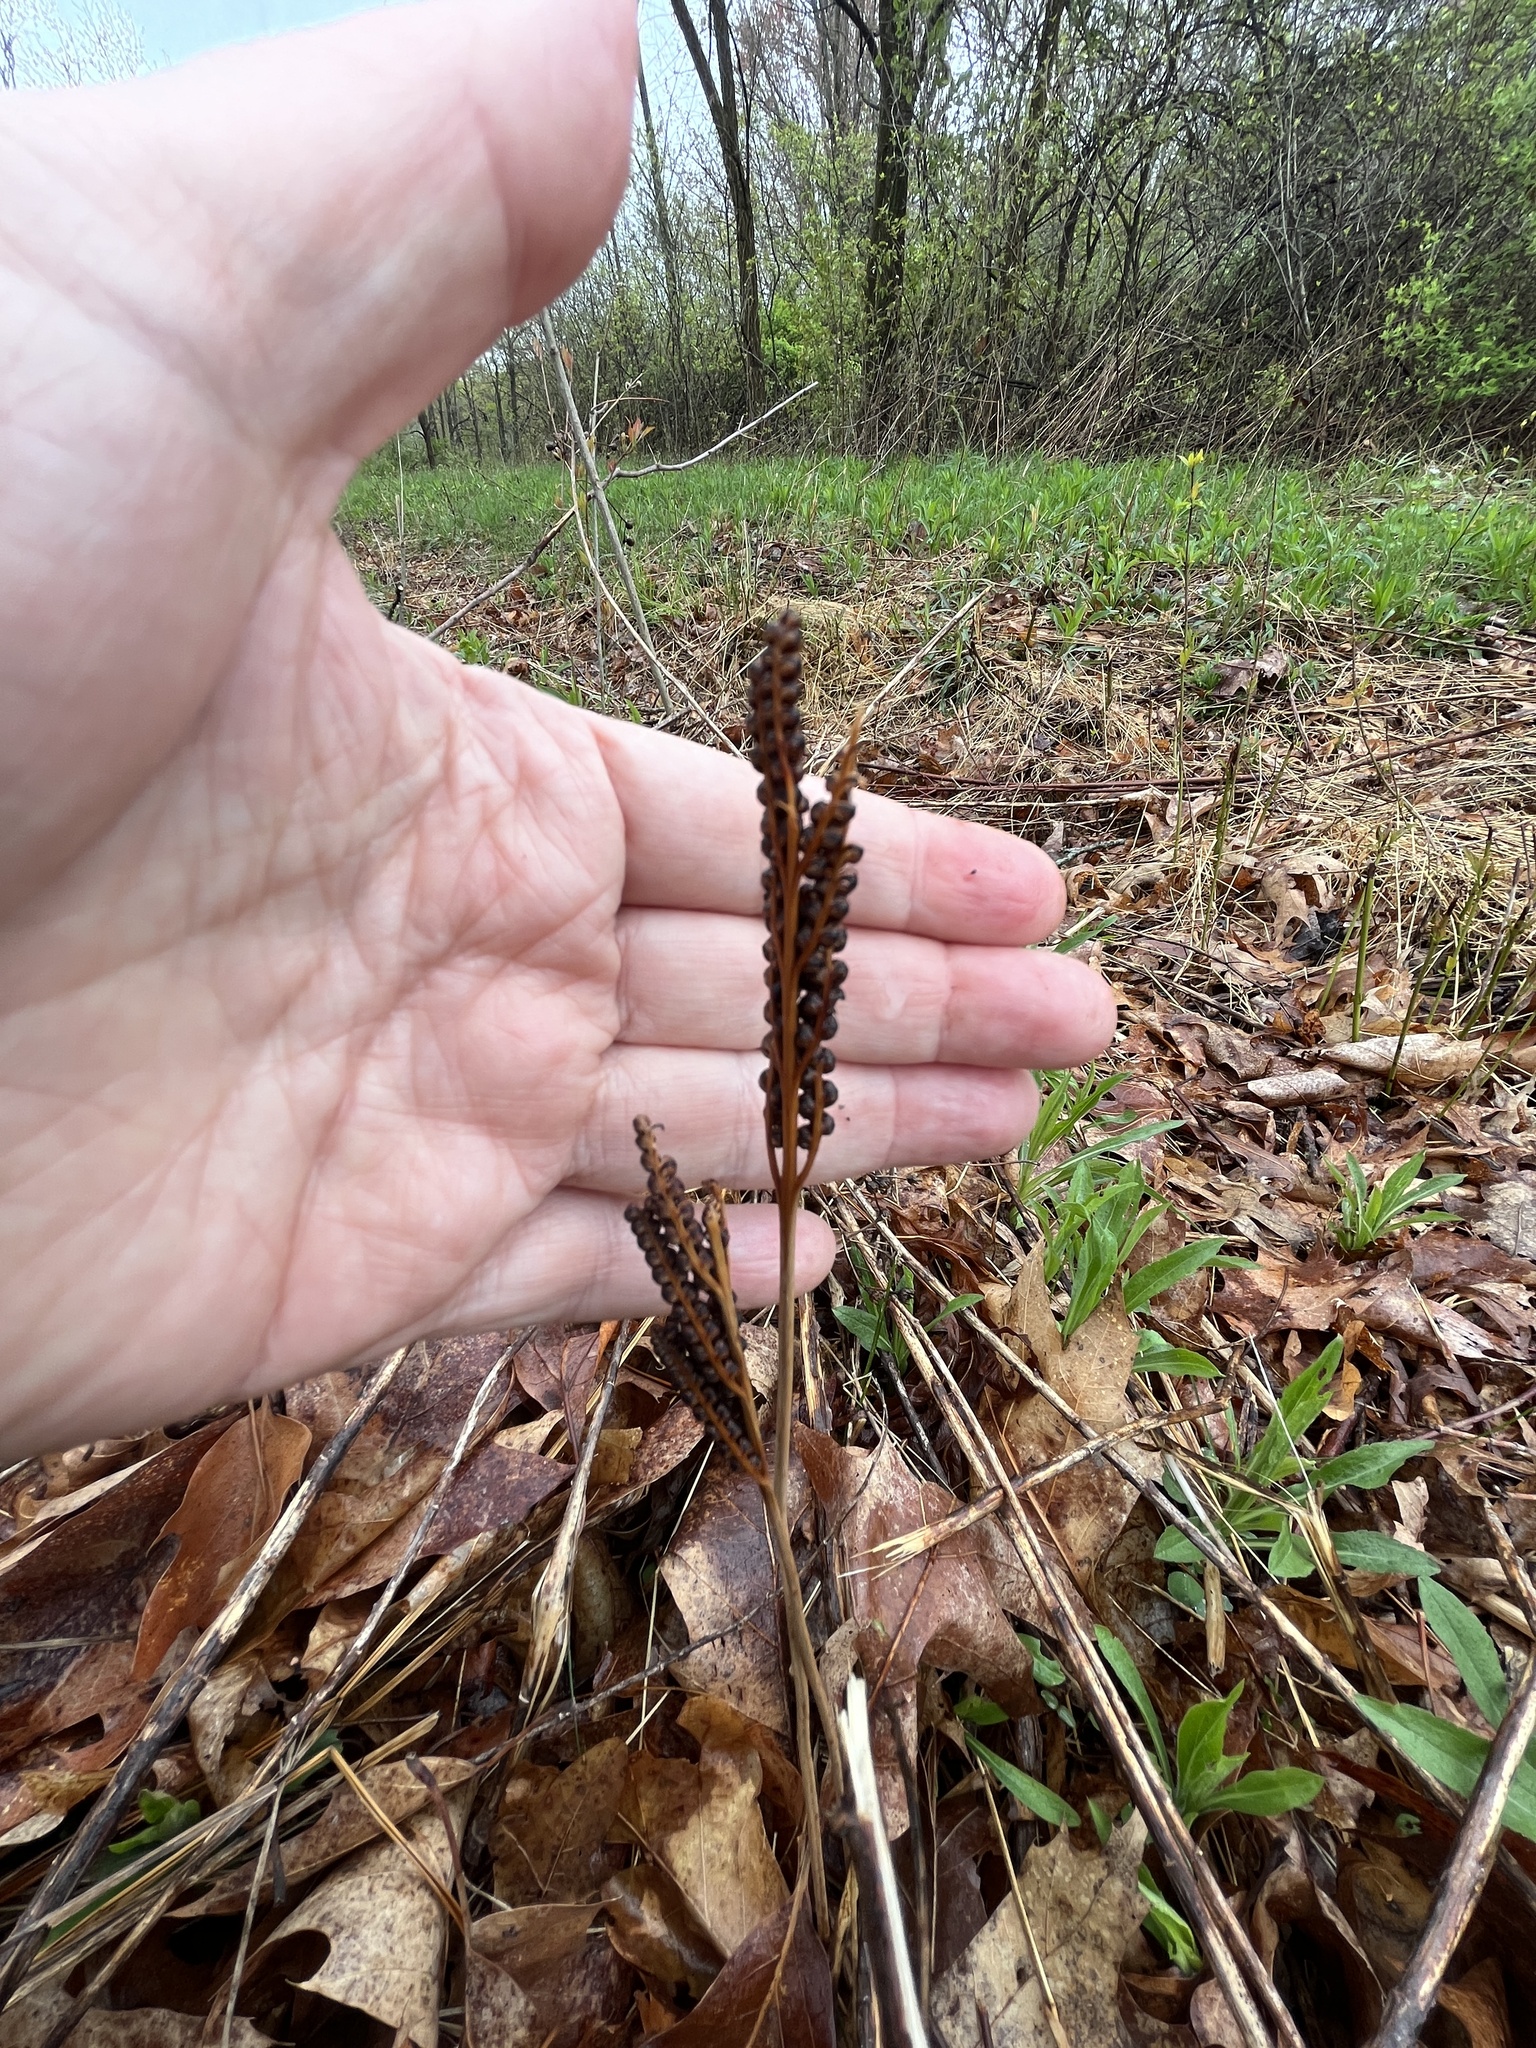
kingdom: Plantae
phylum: Tracheophyta
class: Polypodiopsida
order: Polypodiales
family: Onocleaceae
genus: Onoclea
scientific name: Onoclea sensibilis
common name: Sensitive fern
